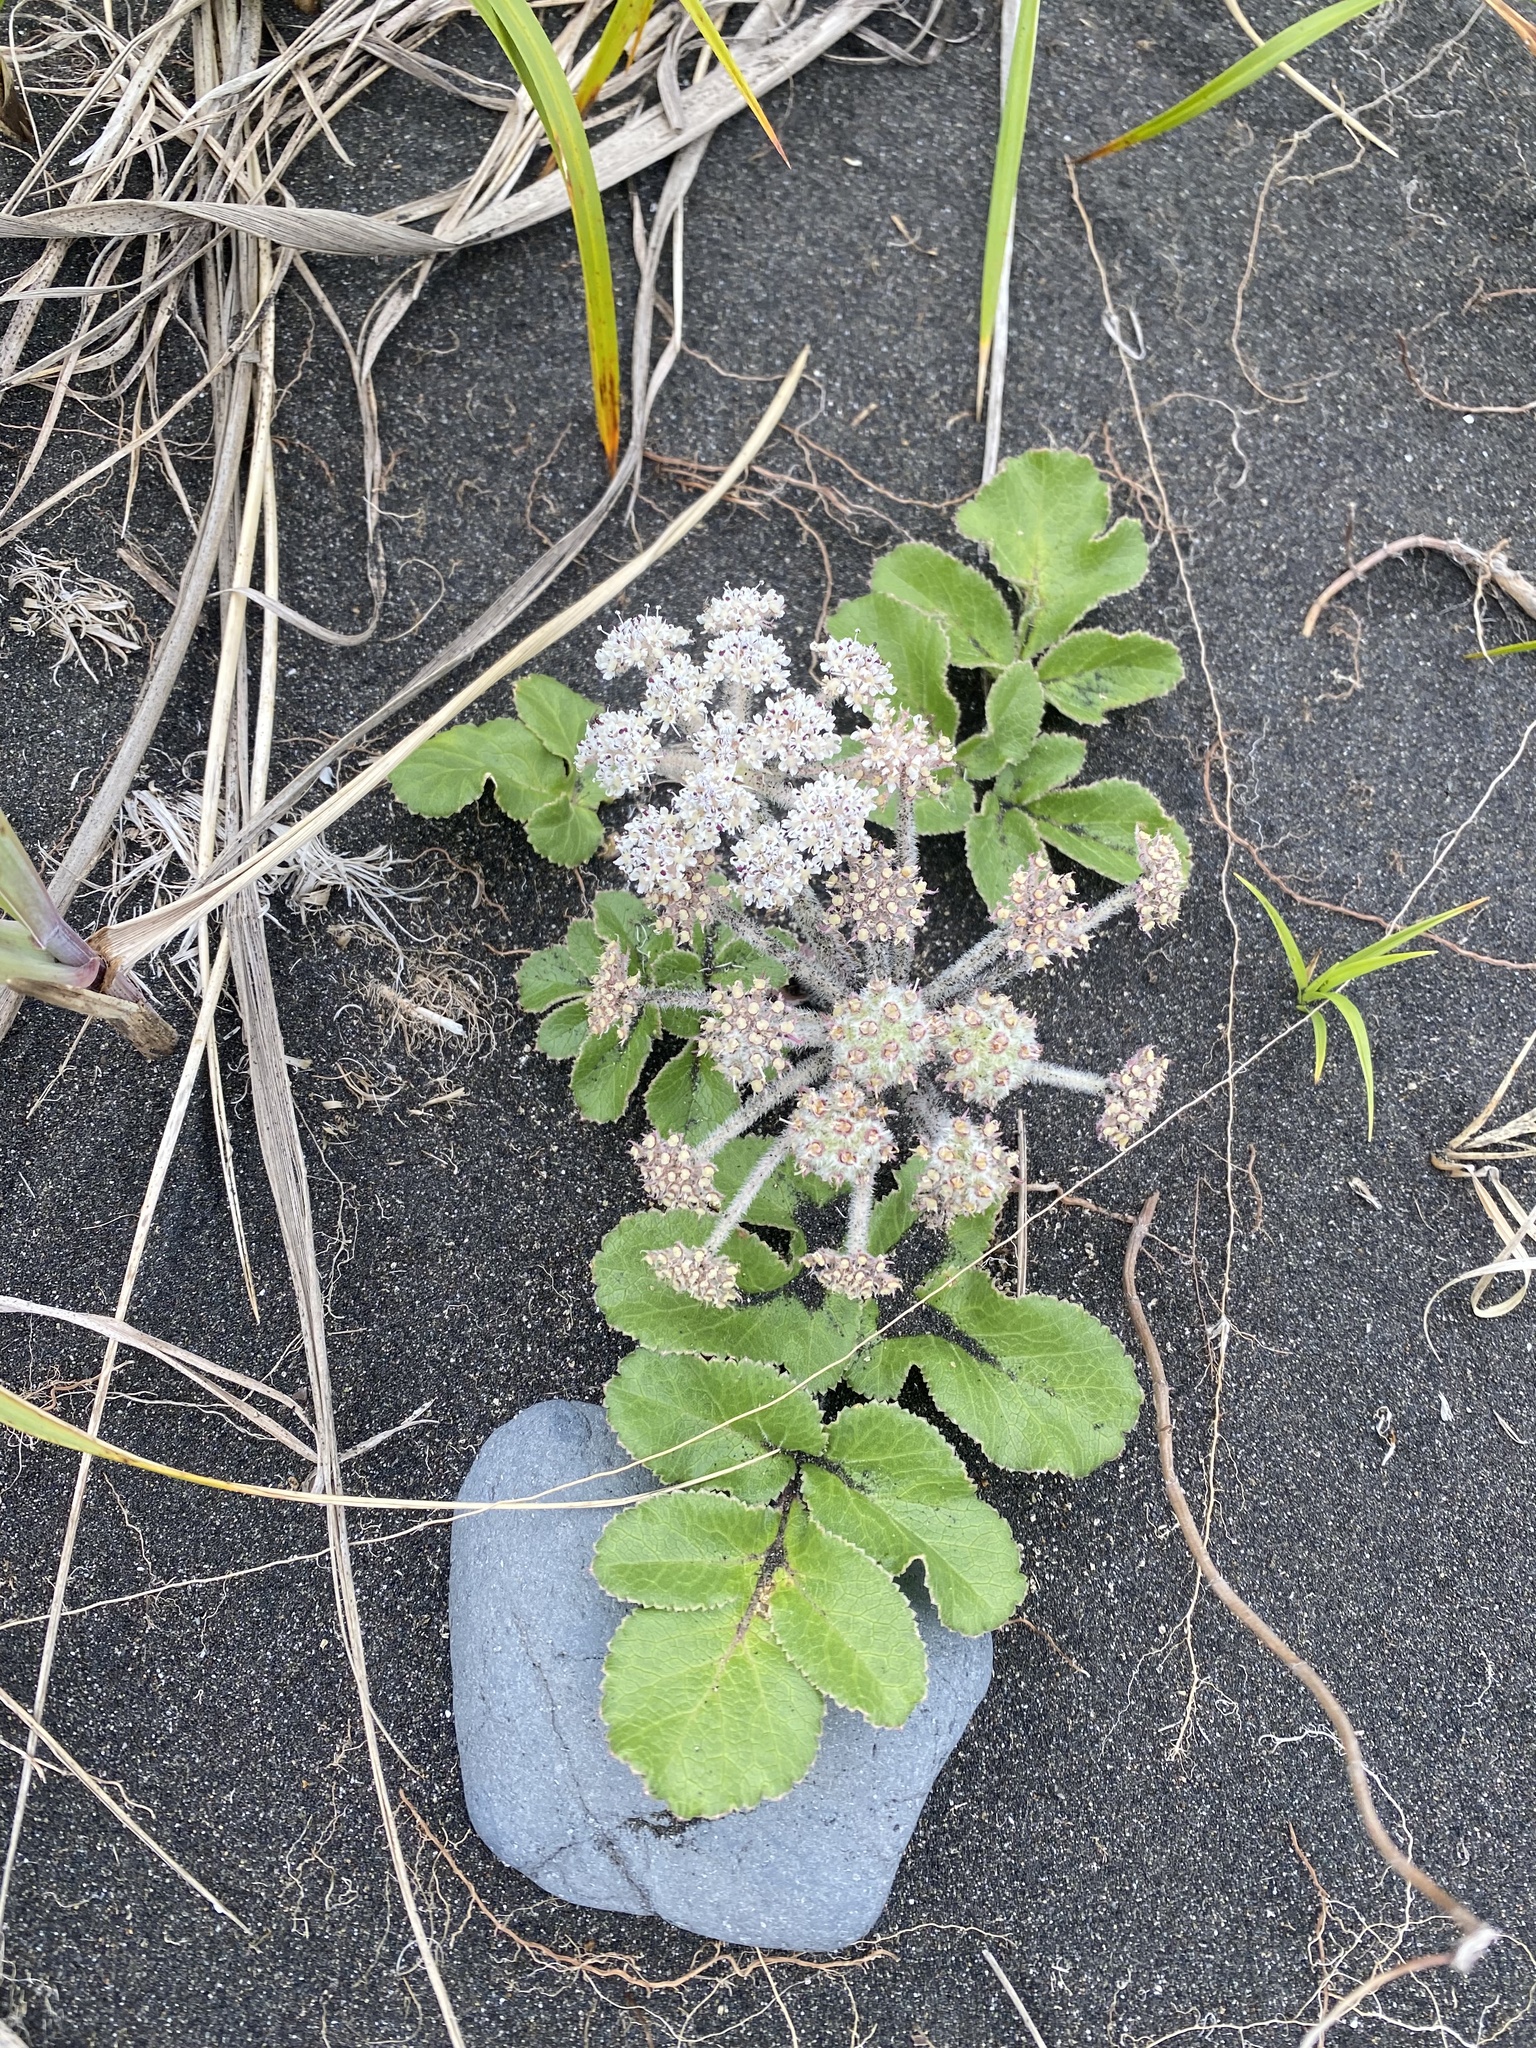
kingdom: Plantae
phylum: Tracheophyta
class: Magnoliopsida
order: Apiales
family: Apiaceae
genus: Glehnia
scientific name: Glehnia littoralis
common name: Beach silvertop
